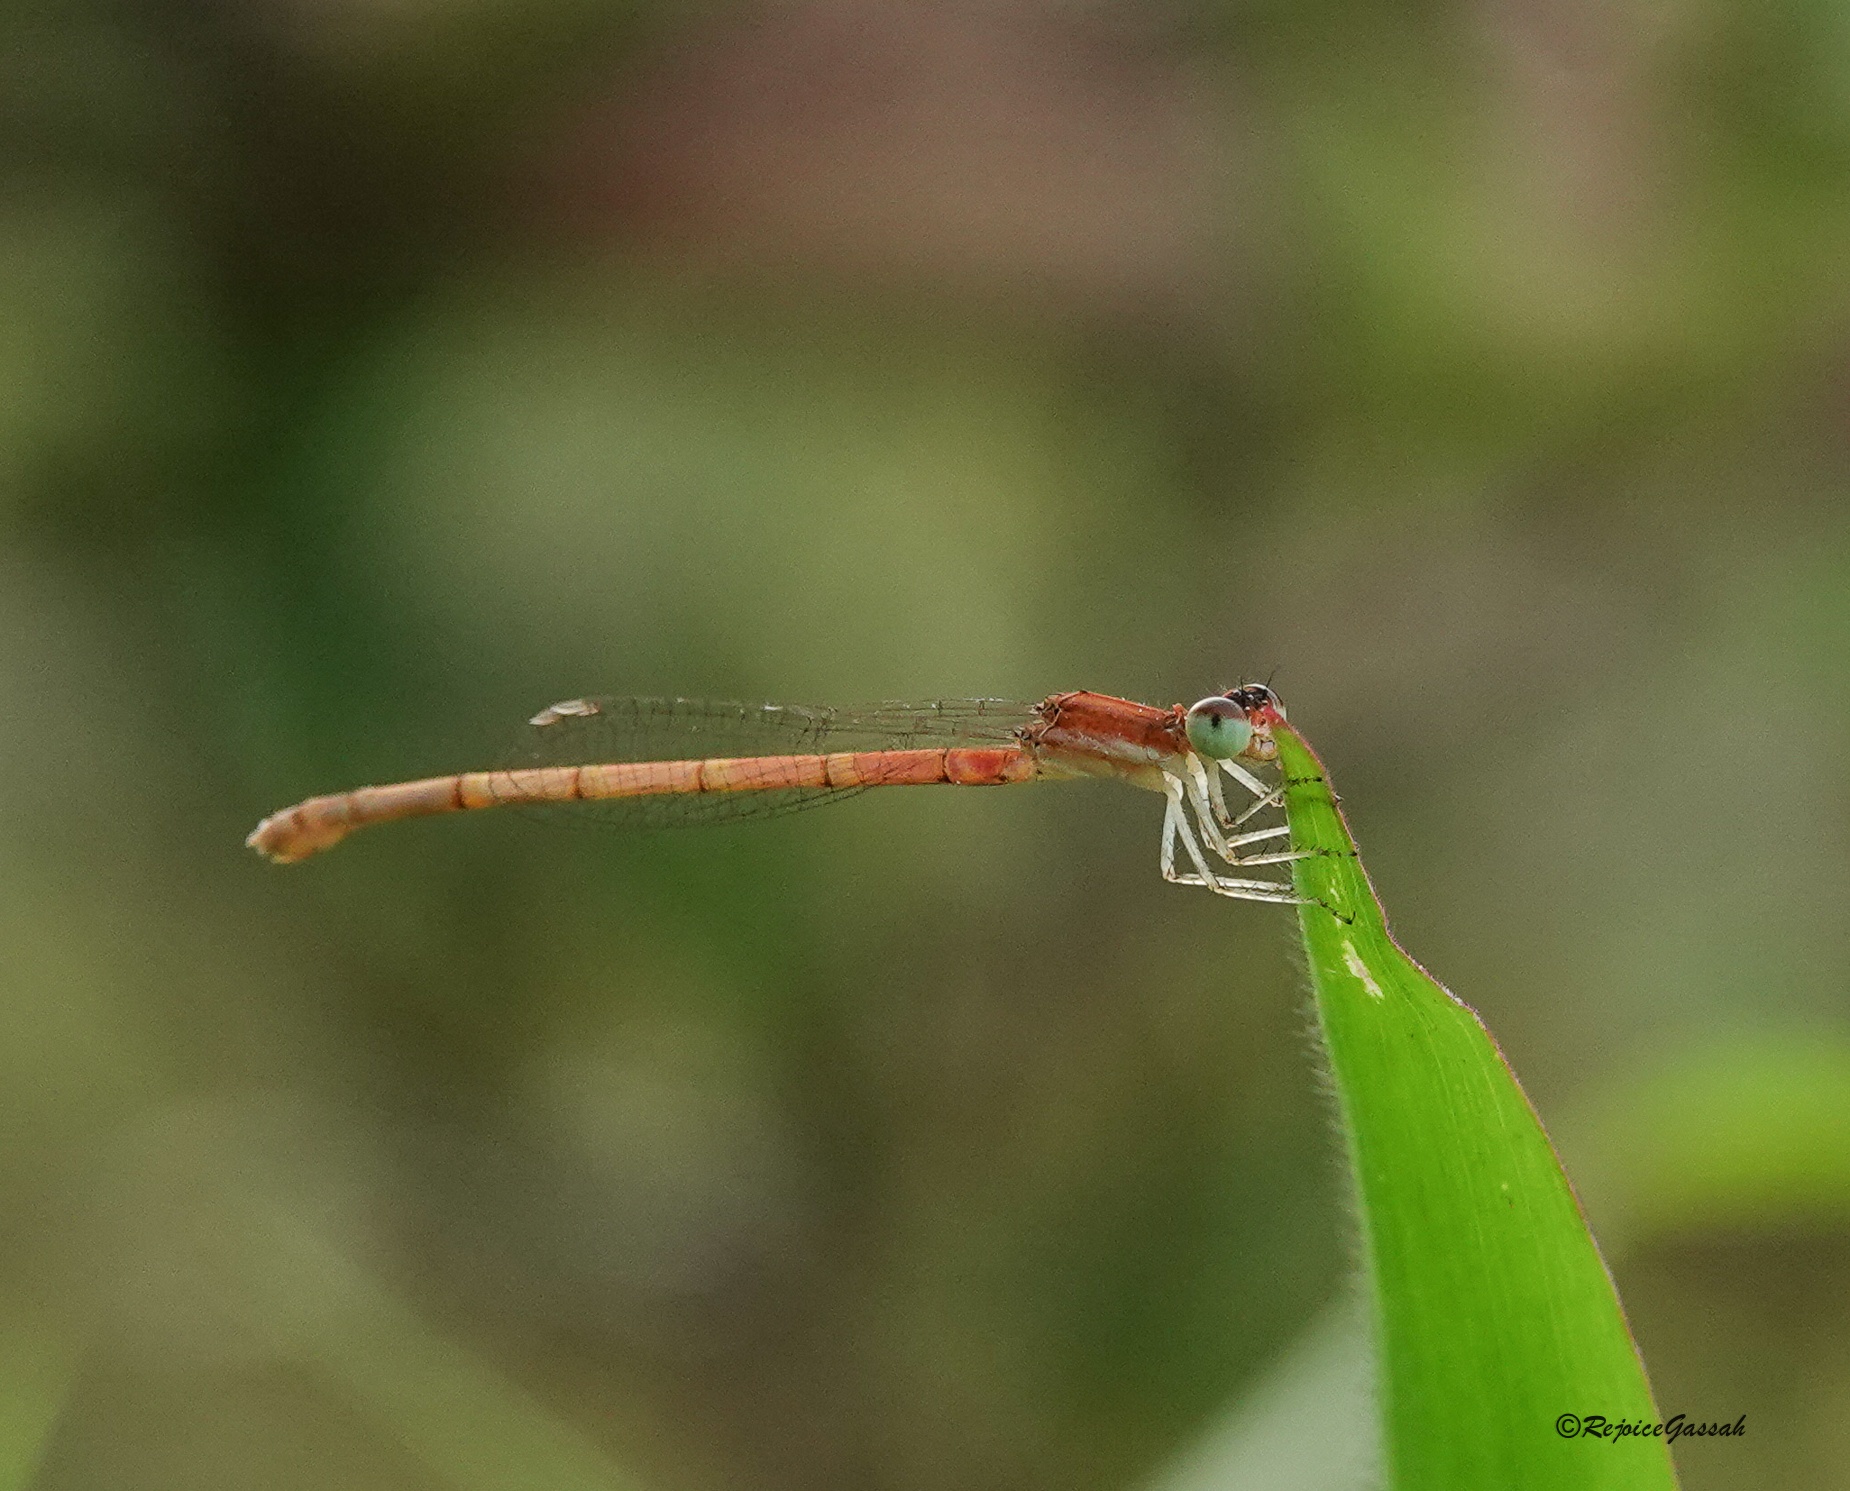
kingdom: Animalia
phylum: Arthropoda
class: Insecta
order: Odonata
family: Coenagrionidae
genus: Agriocnemis
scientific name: Agriocnemis clauseni
